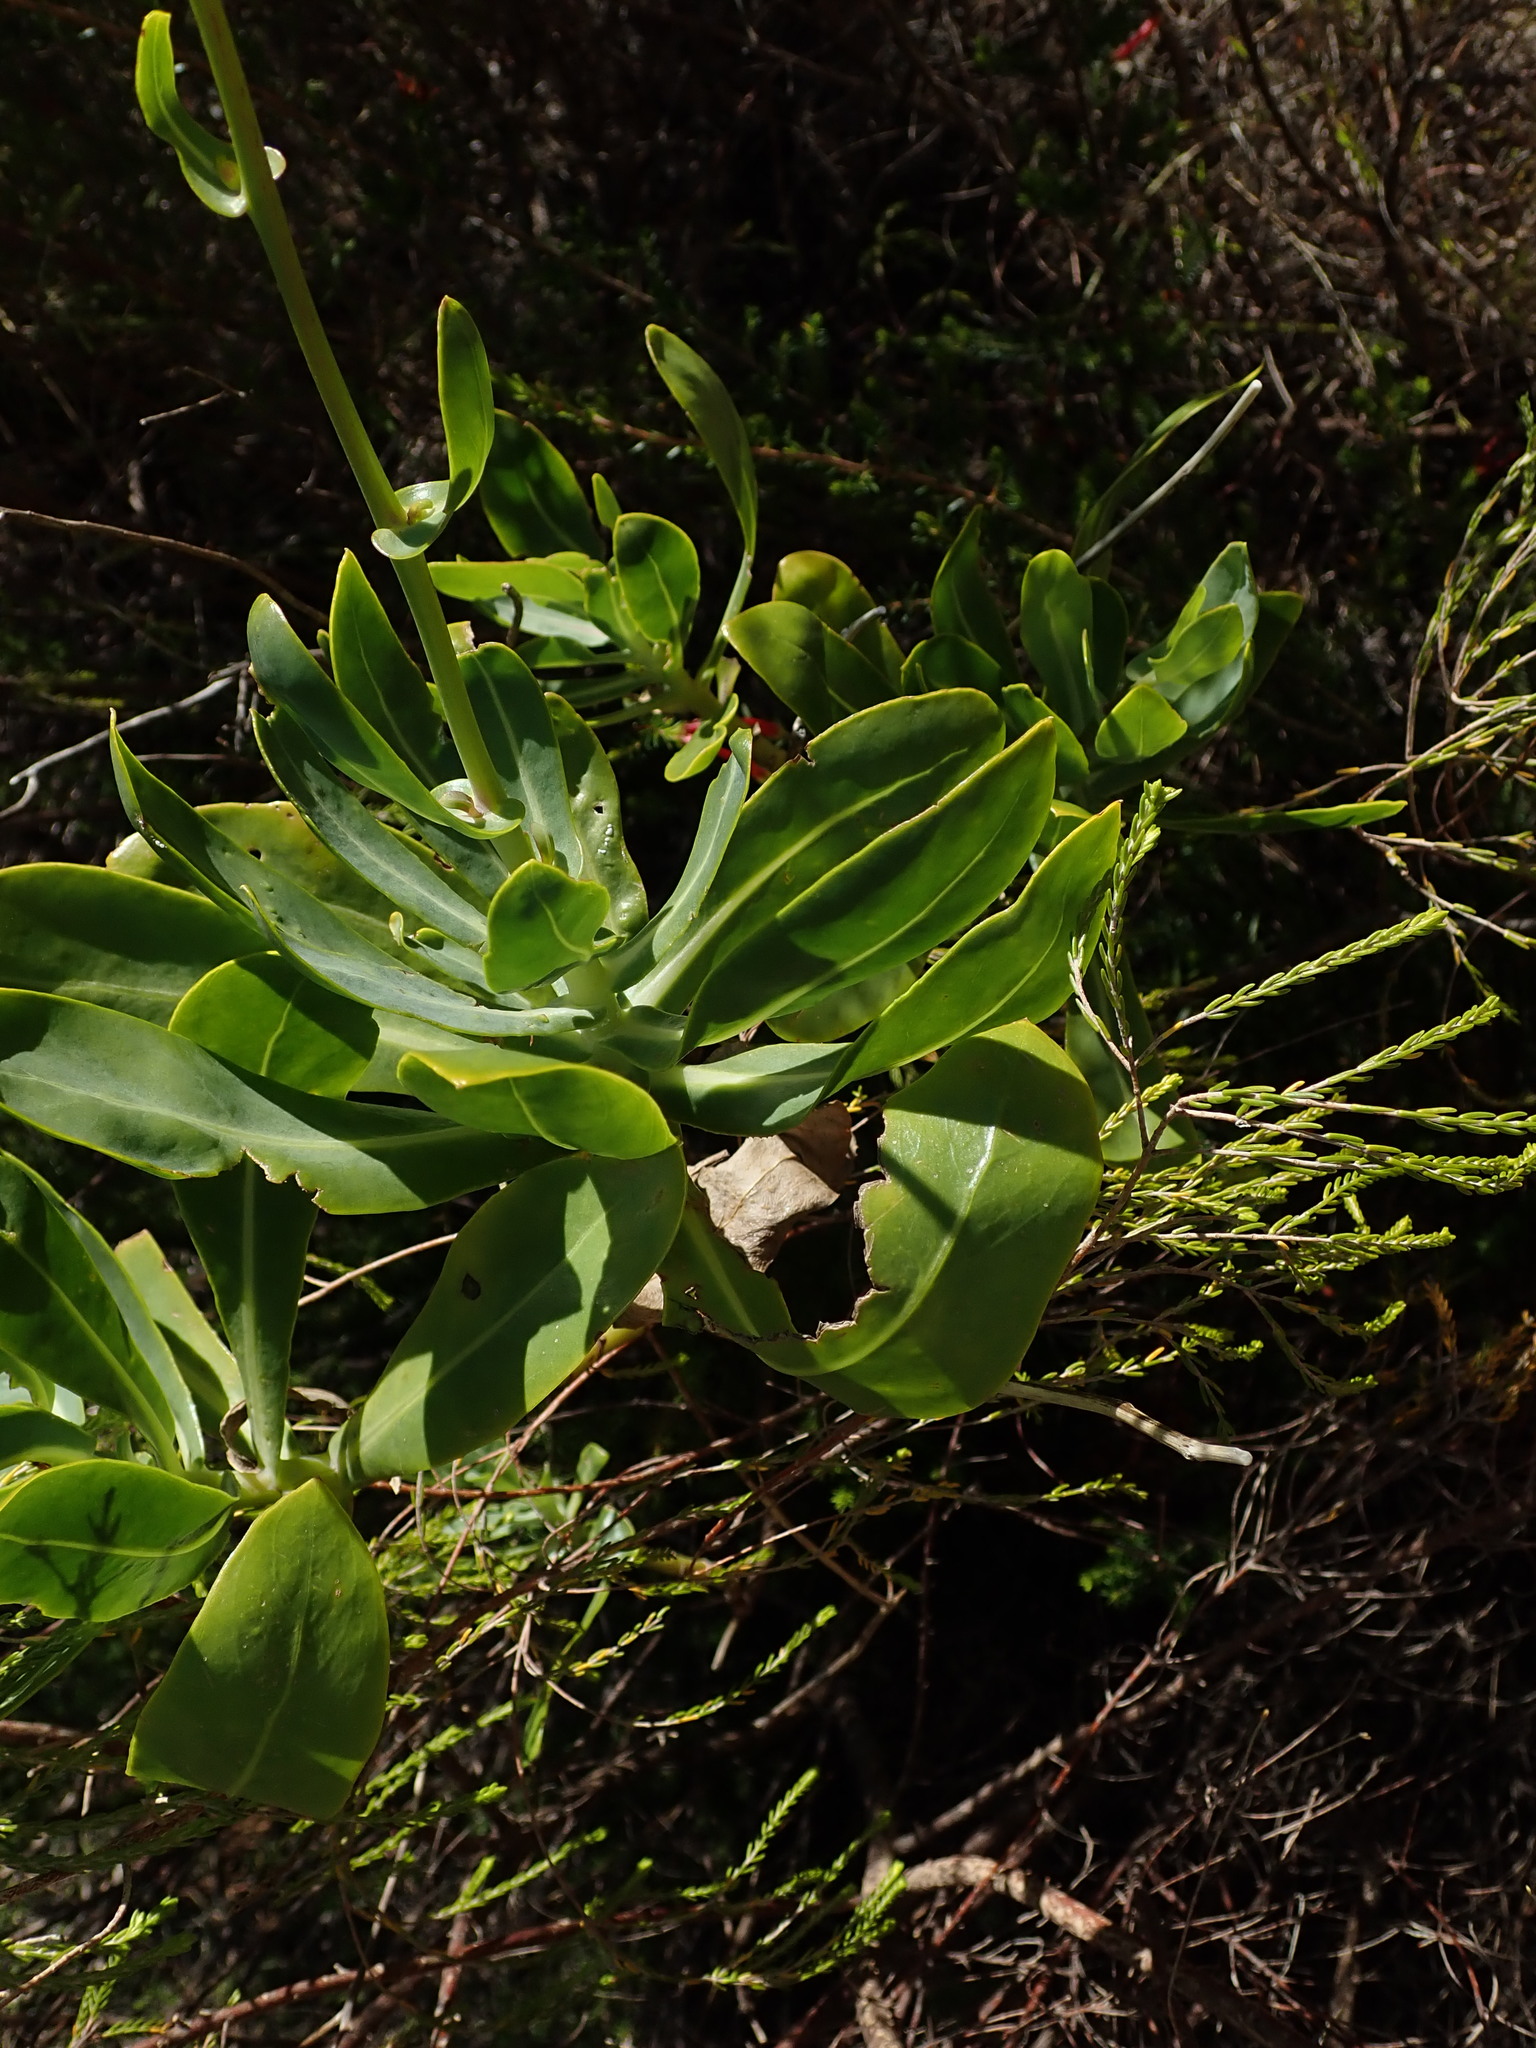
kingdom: Plantae
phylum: Tracheophyta
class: Magnoliopsida
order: Asterales
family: Asteraceae
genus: Othonna
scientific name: Othonna parviflora
